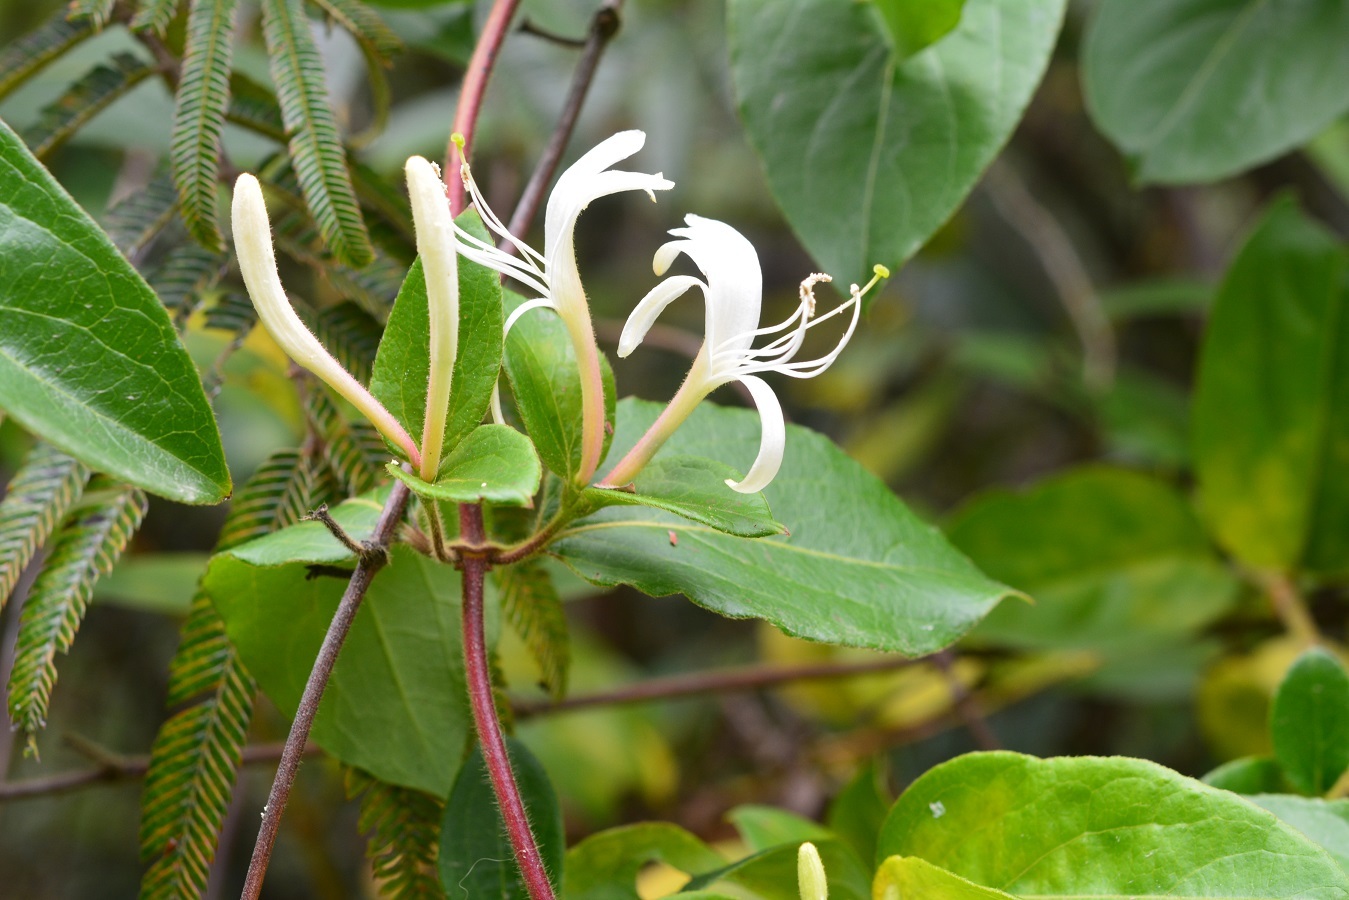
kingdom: Plantae
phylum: Tracheophyta
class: Magnoliopsida
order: Dipsacales
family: Caprifoliaceae
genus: Lonicera
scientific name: Lonicera japonica
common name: Japanese honeysuckle
